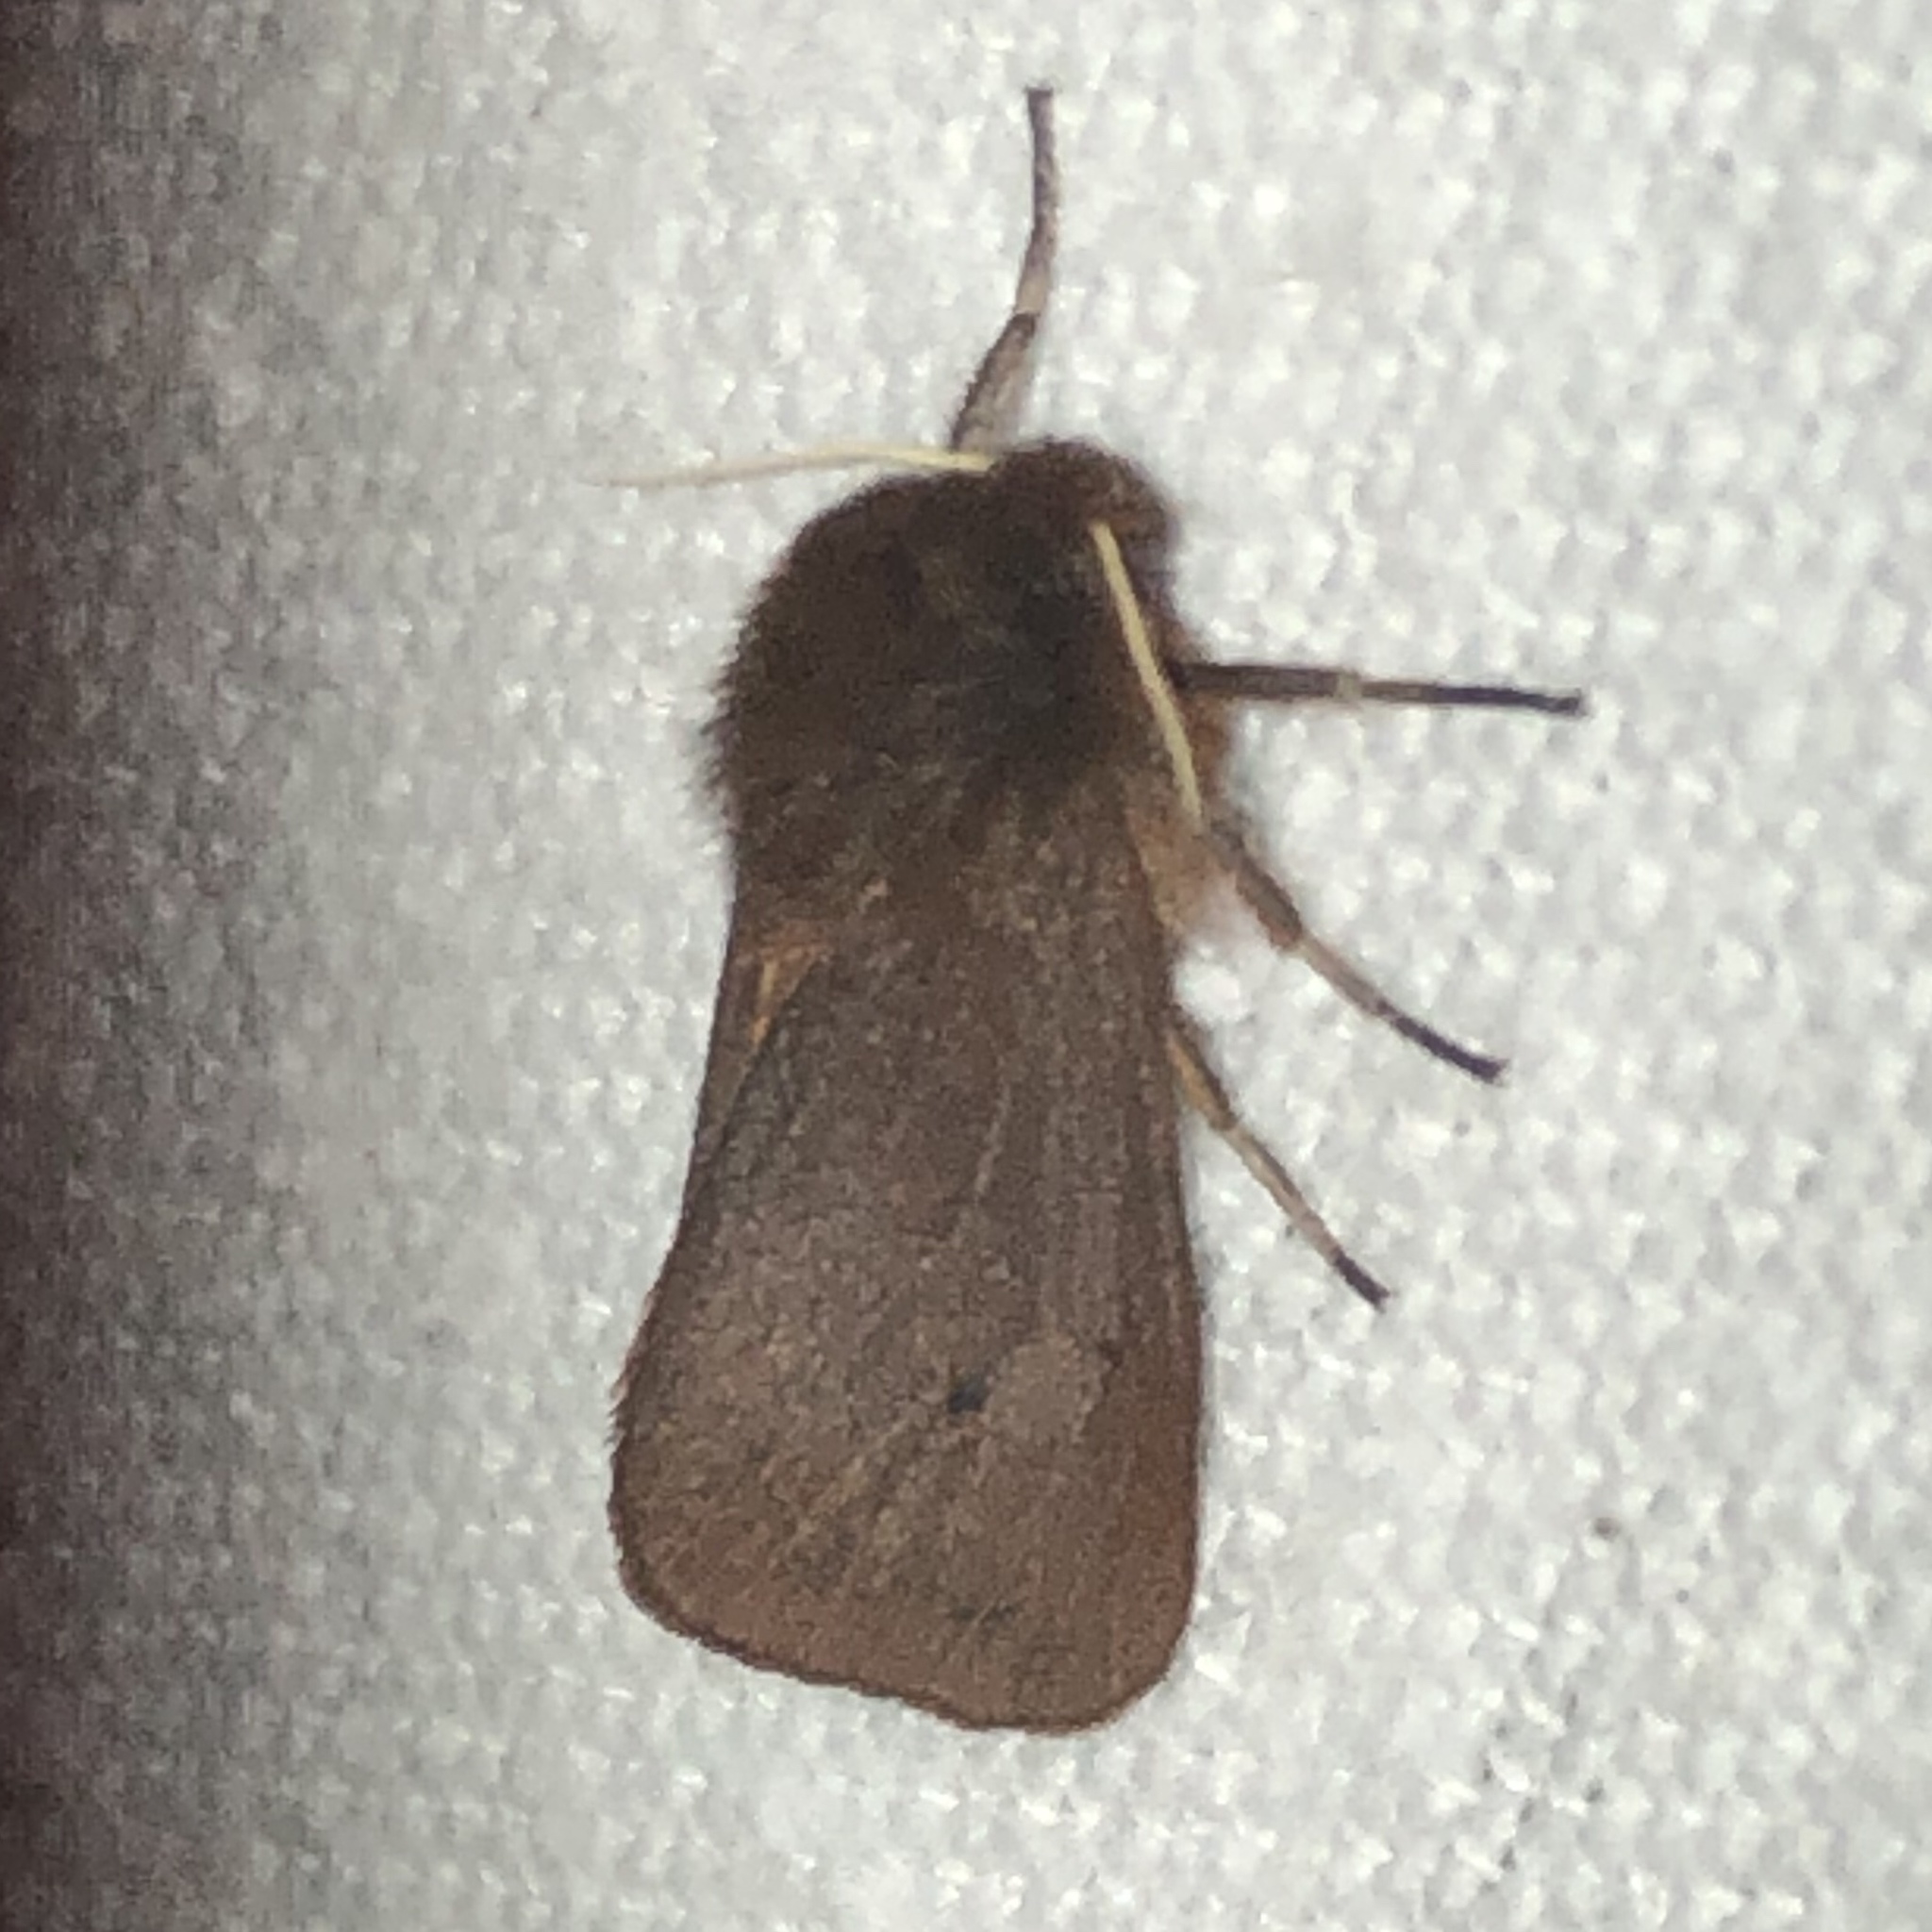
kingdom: Animalia
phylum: Arthropoda
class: Insecta
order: Lepidoptera
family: Erebidae
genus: Phragmatobia
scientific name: Phragmatobia fuliginosa
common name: Ruby tiger
